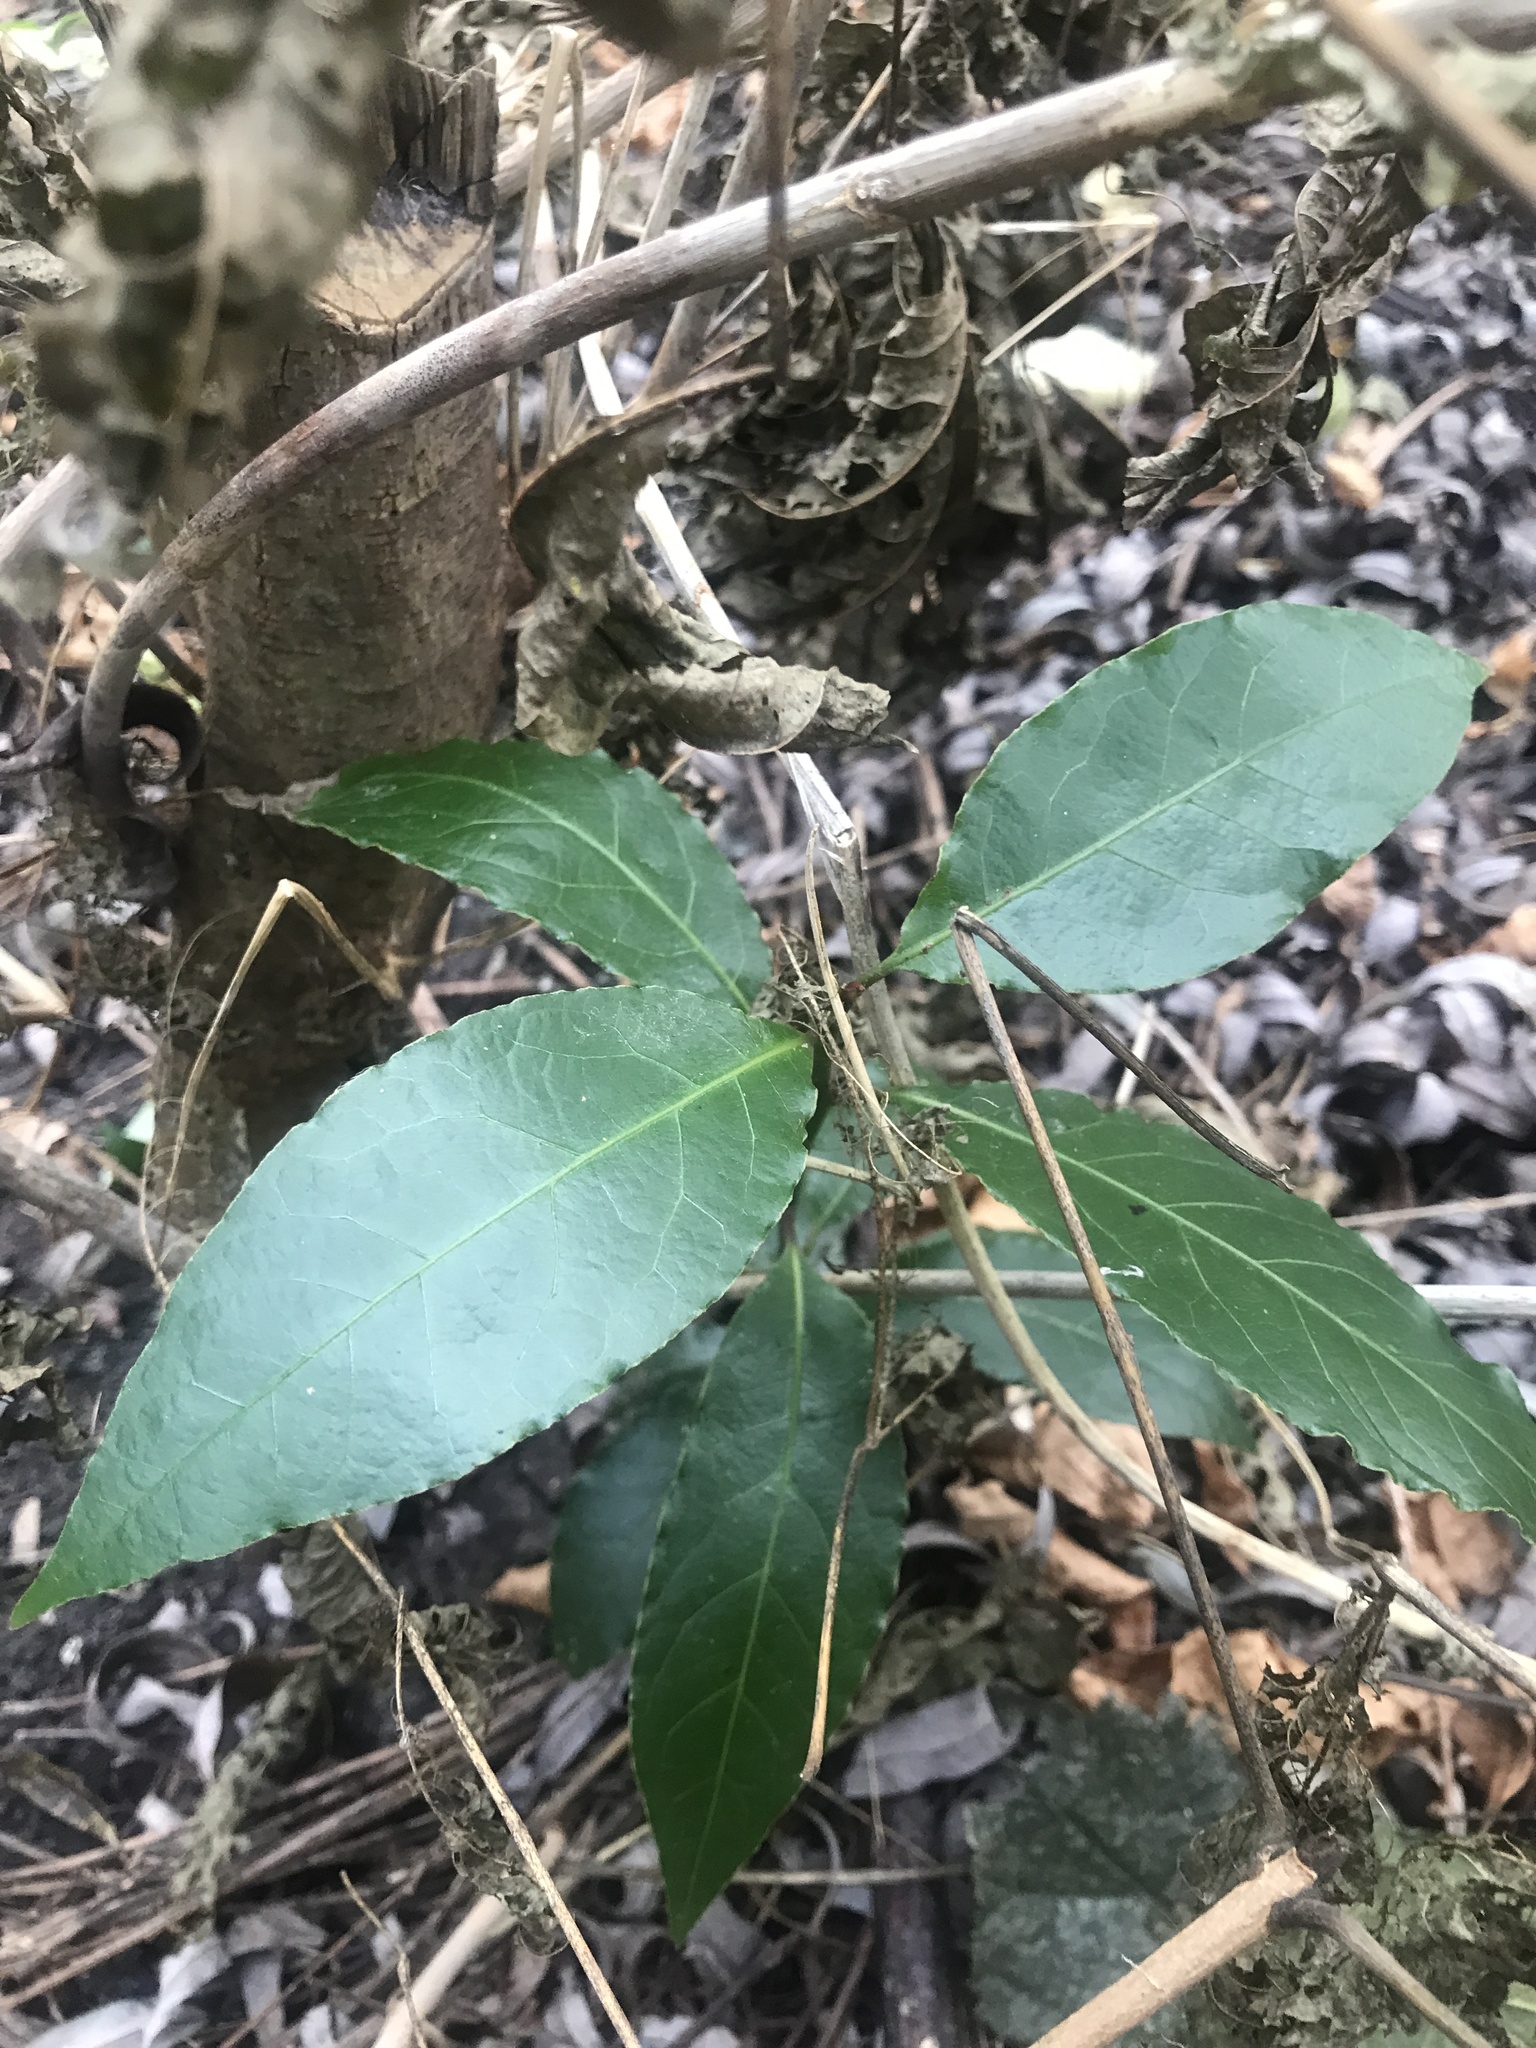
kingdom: Plantae
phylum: Tracheophyta
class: Magnoliopsida
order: Laurales
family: Lauraceae
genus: Laurus
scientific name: Laurus nobilis
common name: Bay
